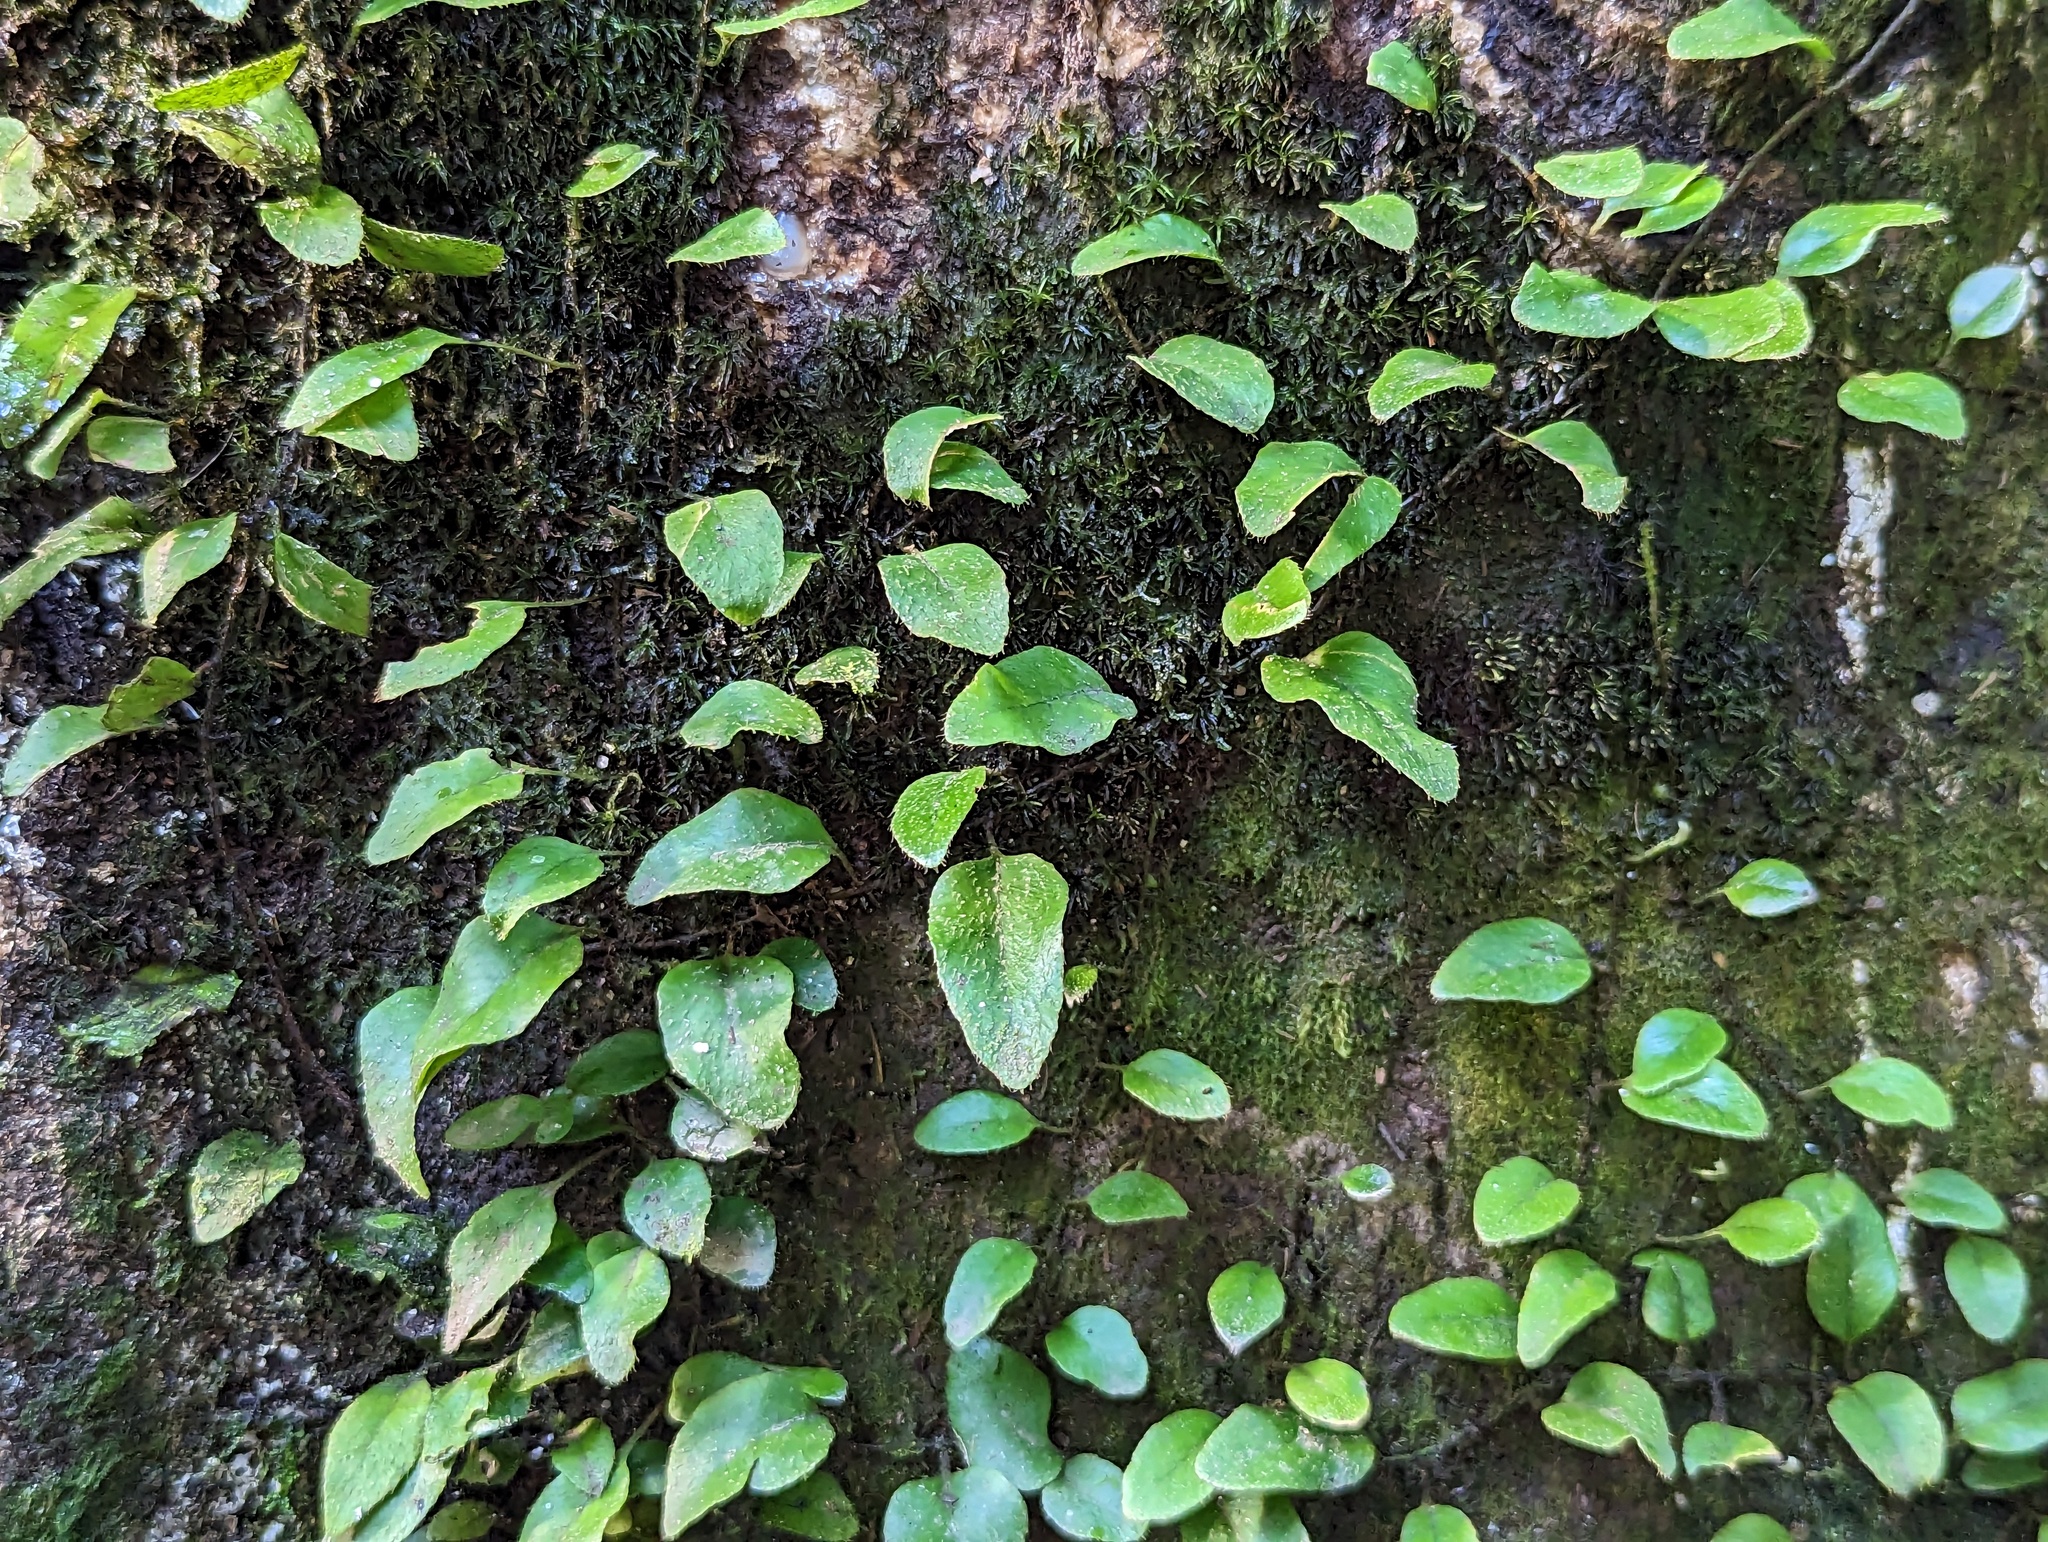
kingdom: Plantae
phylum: Tracheophyta
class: Polypodiopsida
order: Polypodiales
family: Polypodiaceae
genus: Microgramma
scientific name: Microgramma piloselloides
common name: Hairy snakefern
